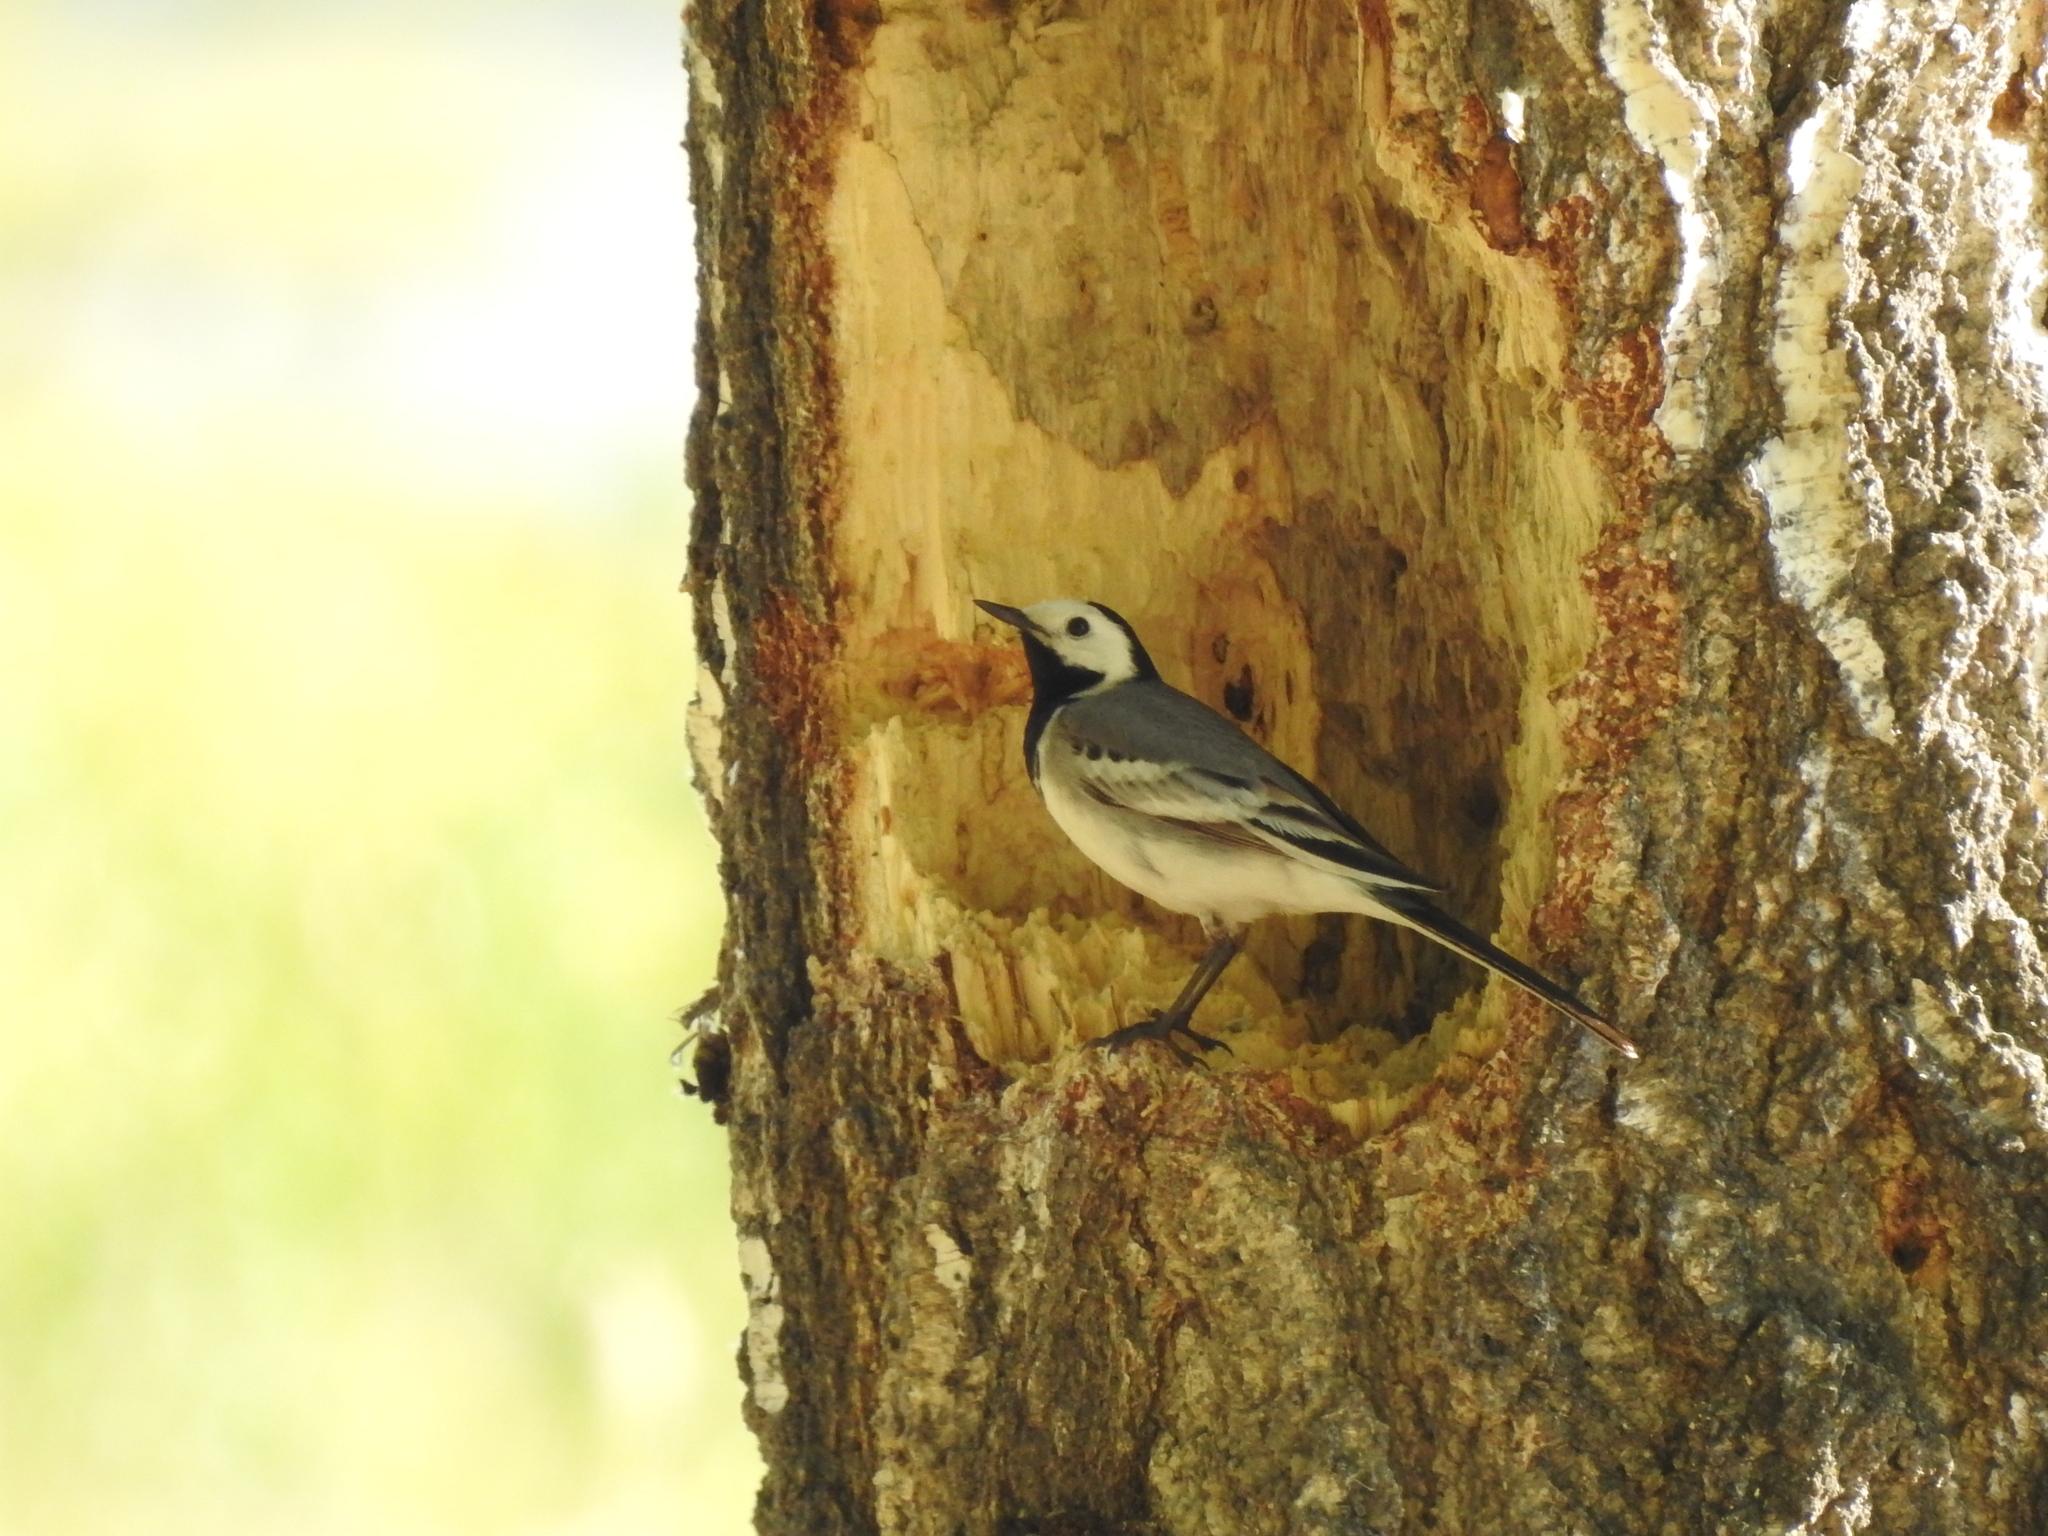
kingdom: Animalia
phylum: Chordata
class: Aves
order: Passeriformes
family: Motacillidae
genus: Motacilla
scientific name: Motacilla alba
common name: White wagtail
